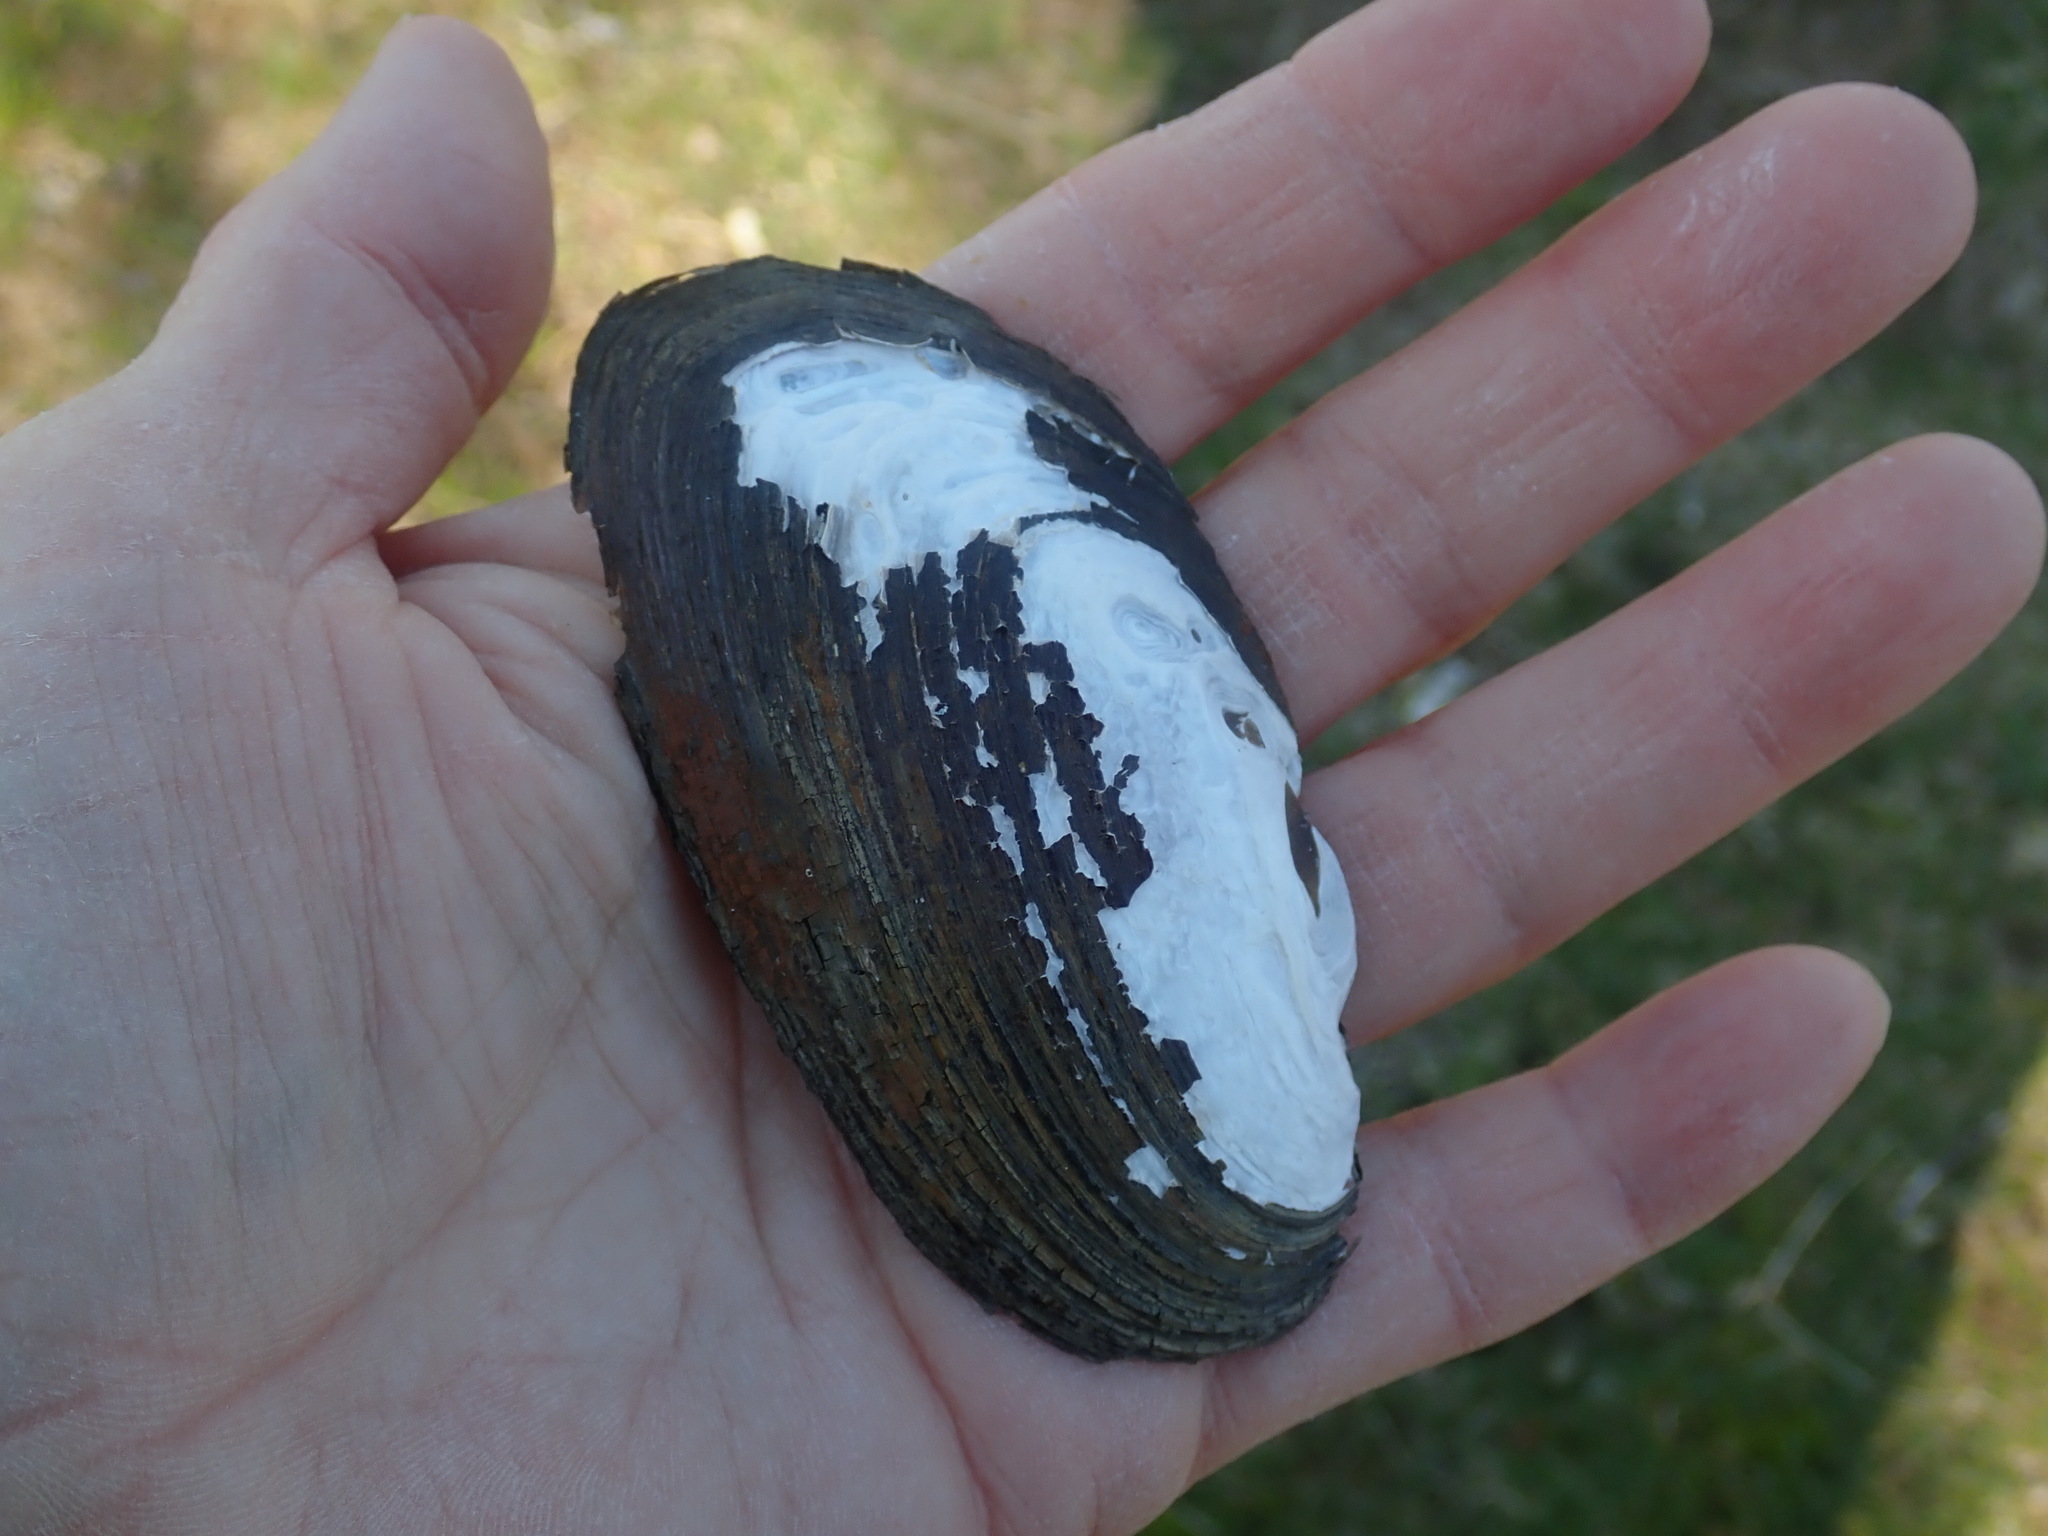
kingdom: Animalia
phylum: Mollusca
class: Bivalvia
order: Unionida
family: Unionidae
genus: Elliptio
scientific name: Elliptio complanata
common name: Eastern elliptio
